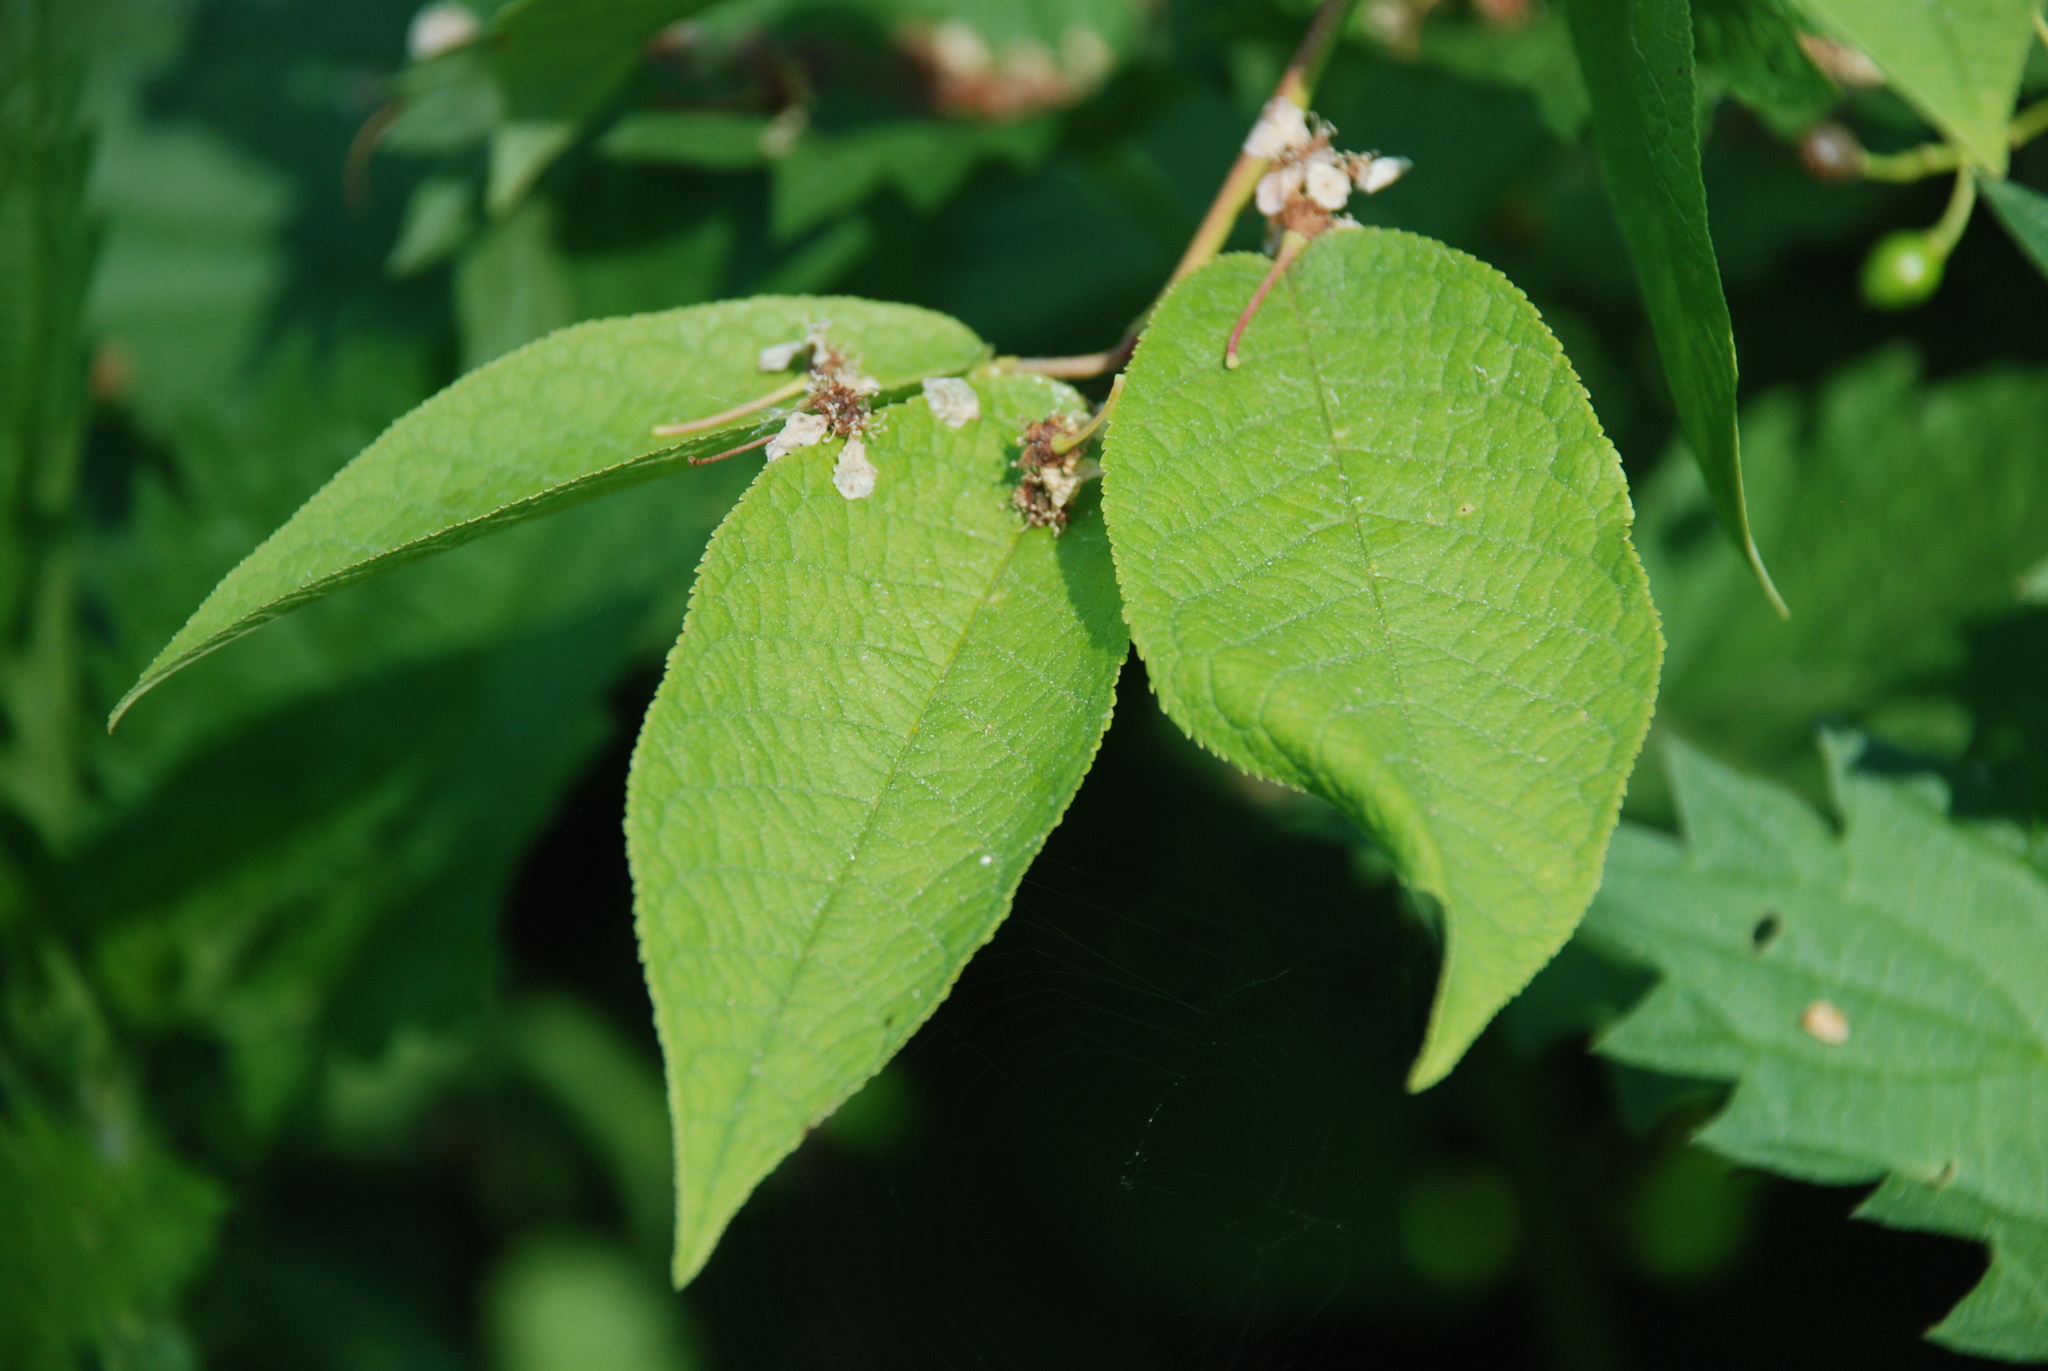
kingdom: Plantae
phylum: Tracheophyta
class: Magnoliopsida
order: Rosales
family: Rosaceae
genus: Prunus
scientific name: Prunus padus
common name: Bird cherry
